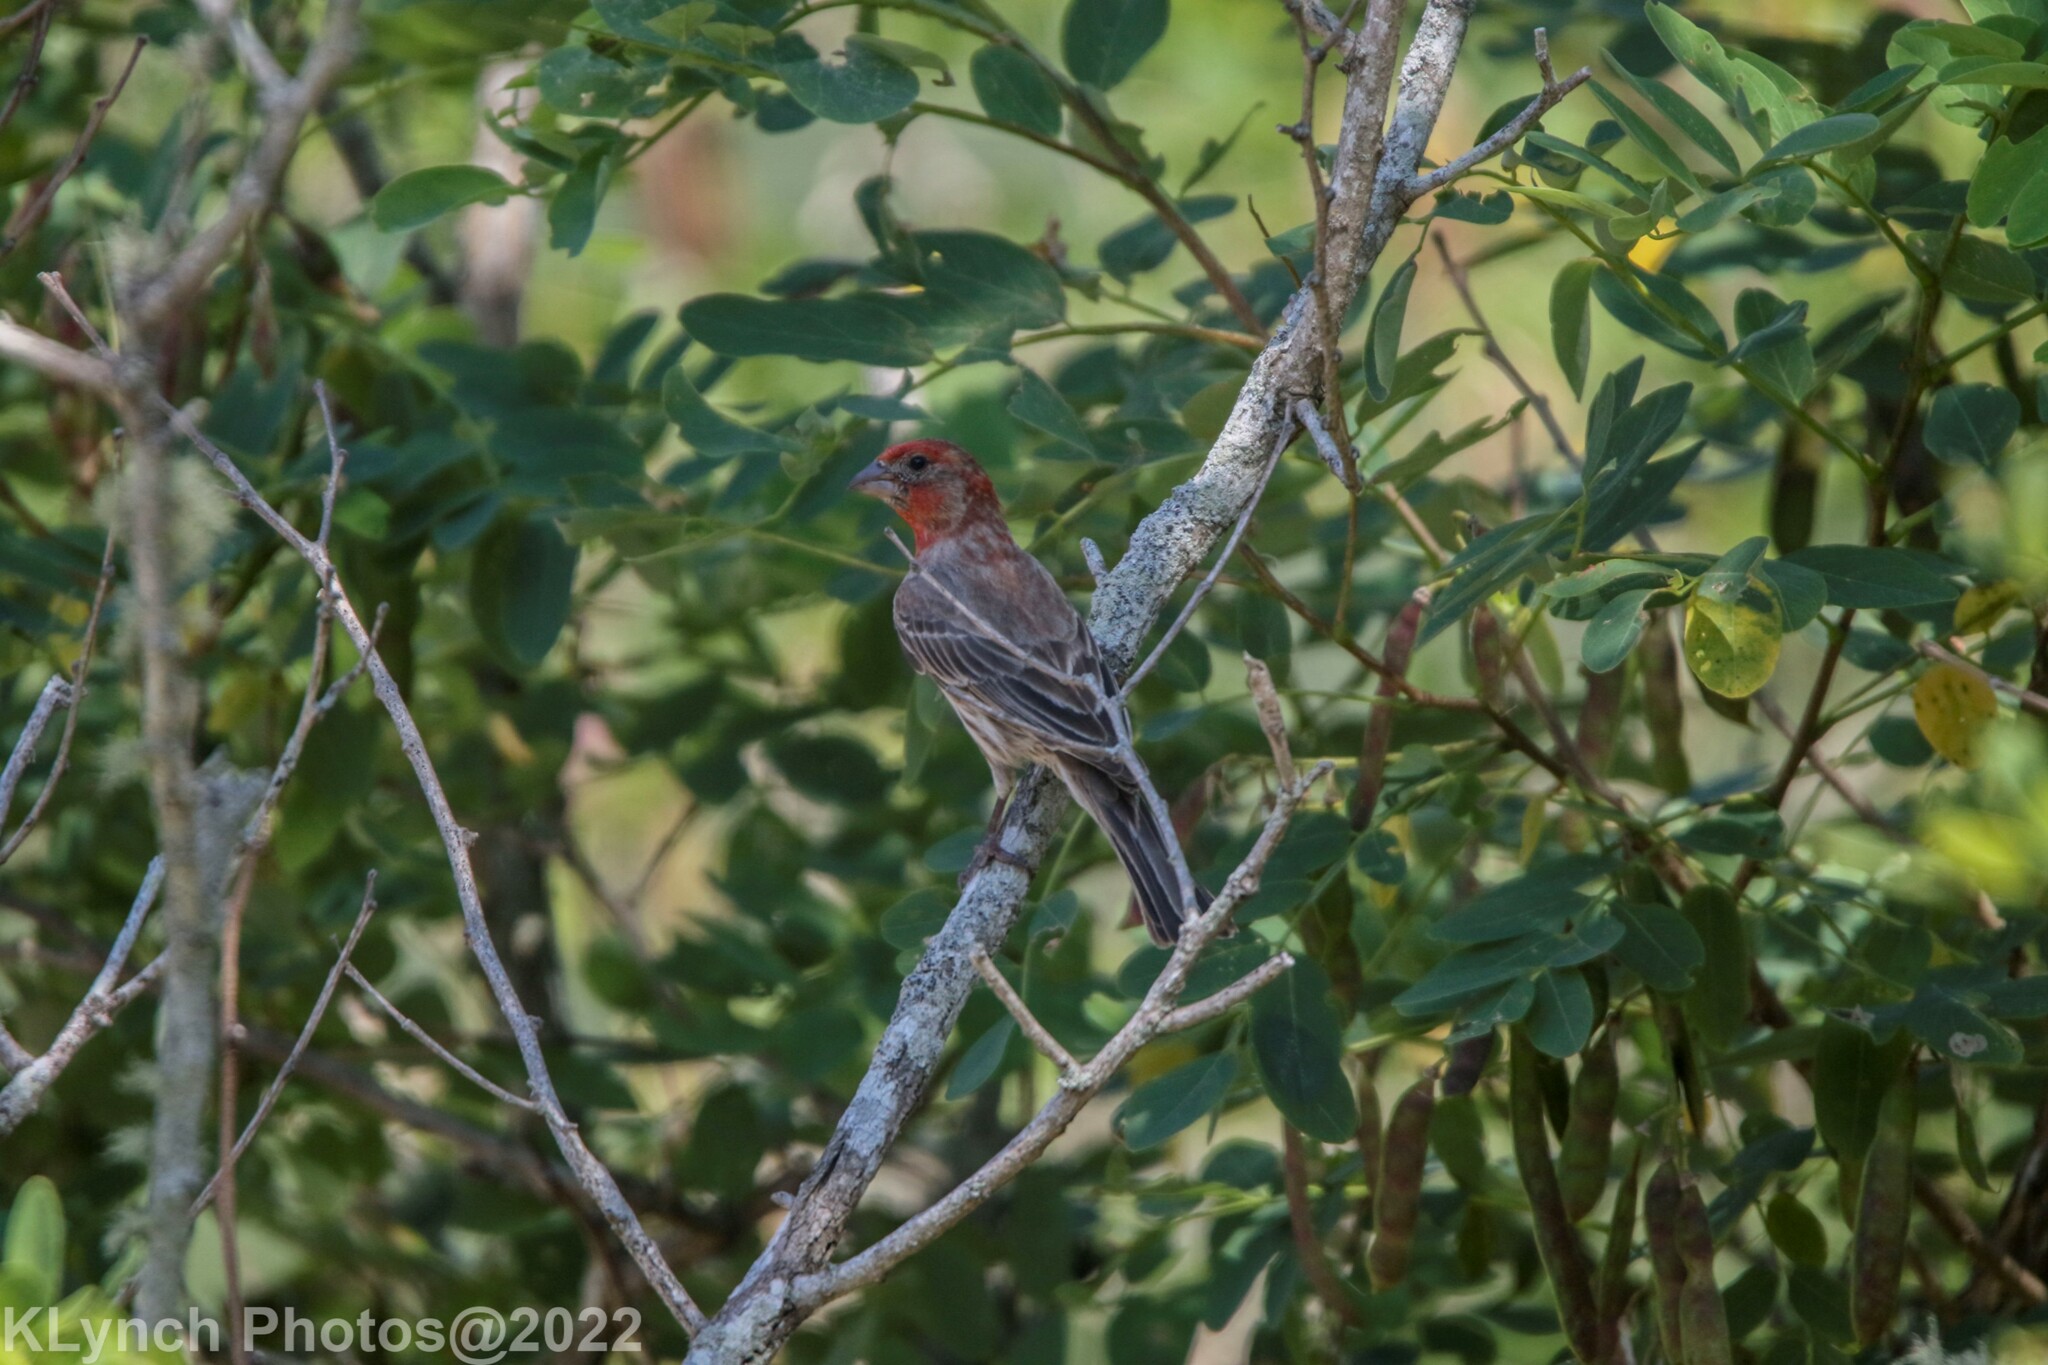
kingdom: Animalia
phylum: Chordata
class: Aves
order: Passeriformes
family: Fringillidae
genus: Haemorhous
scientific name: Haemorhous mexicanus
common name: House finch
